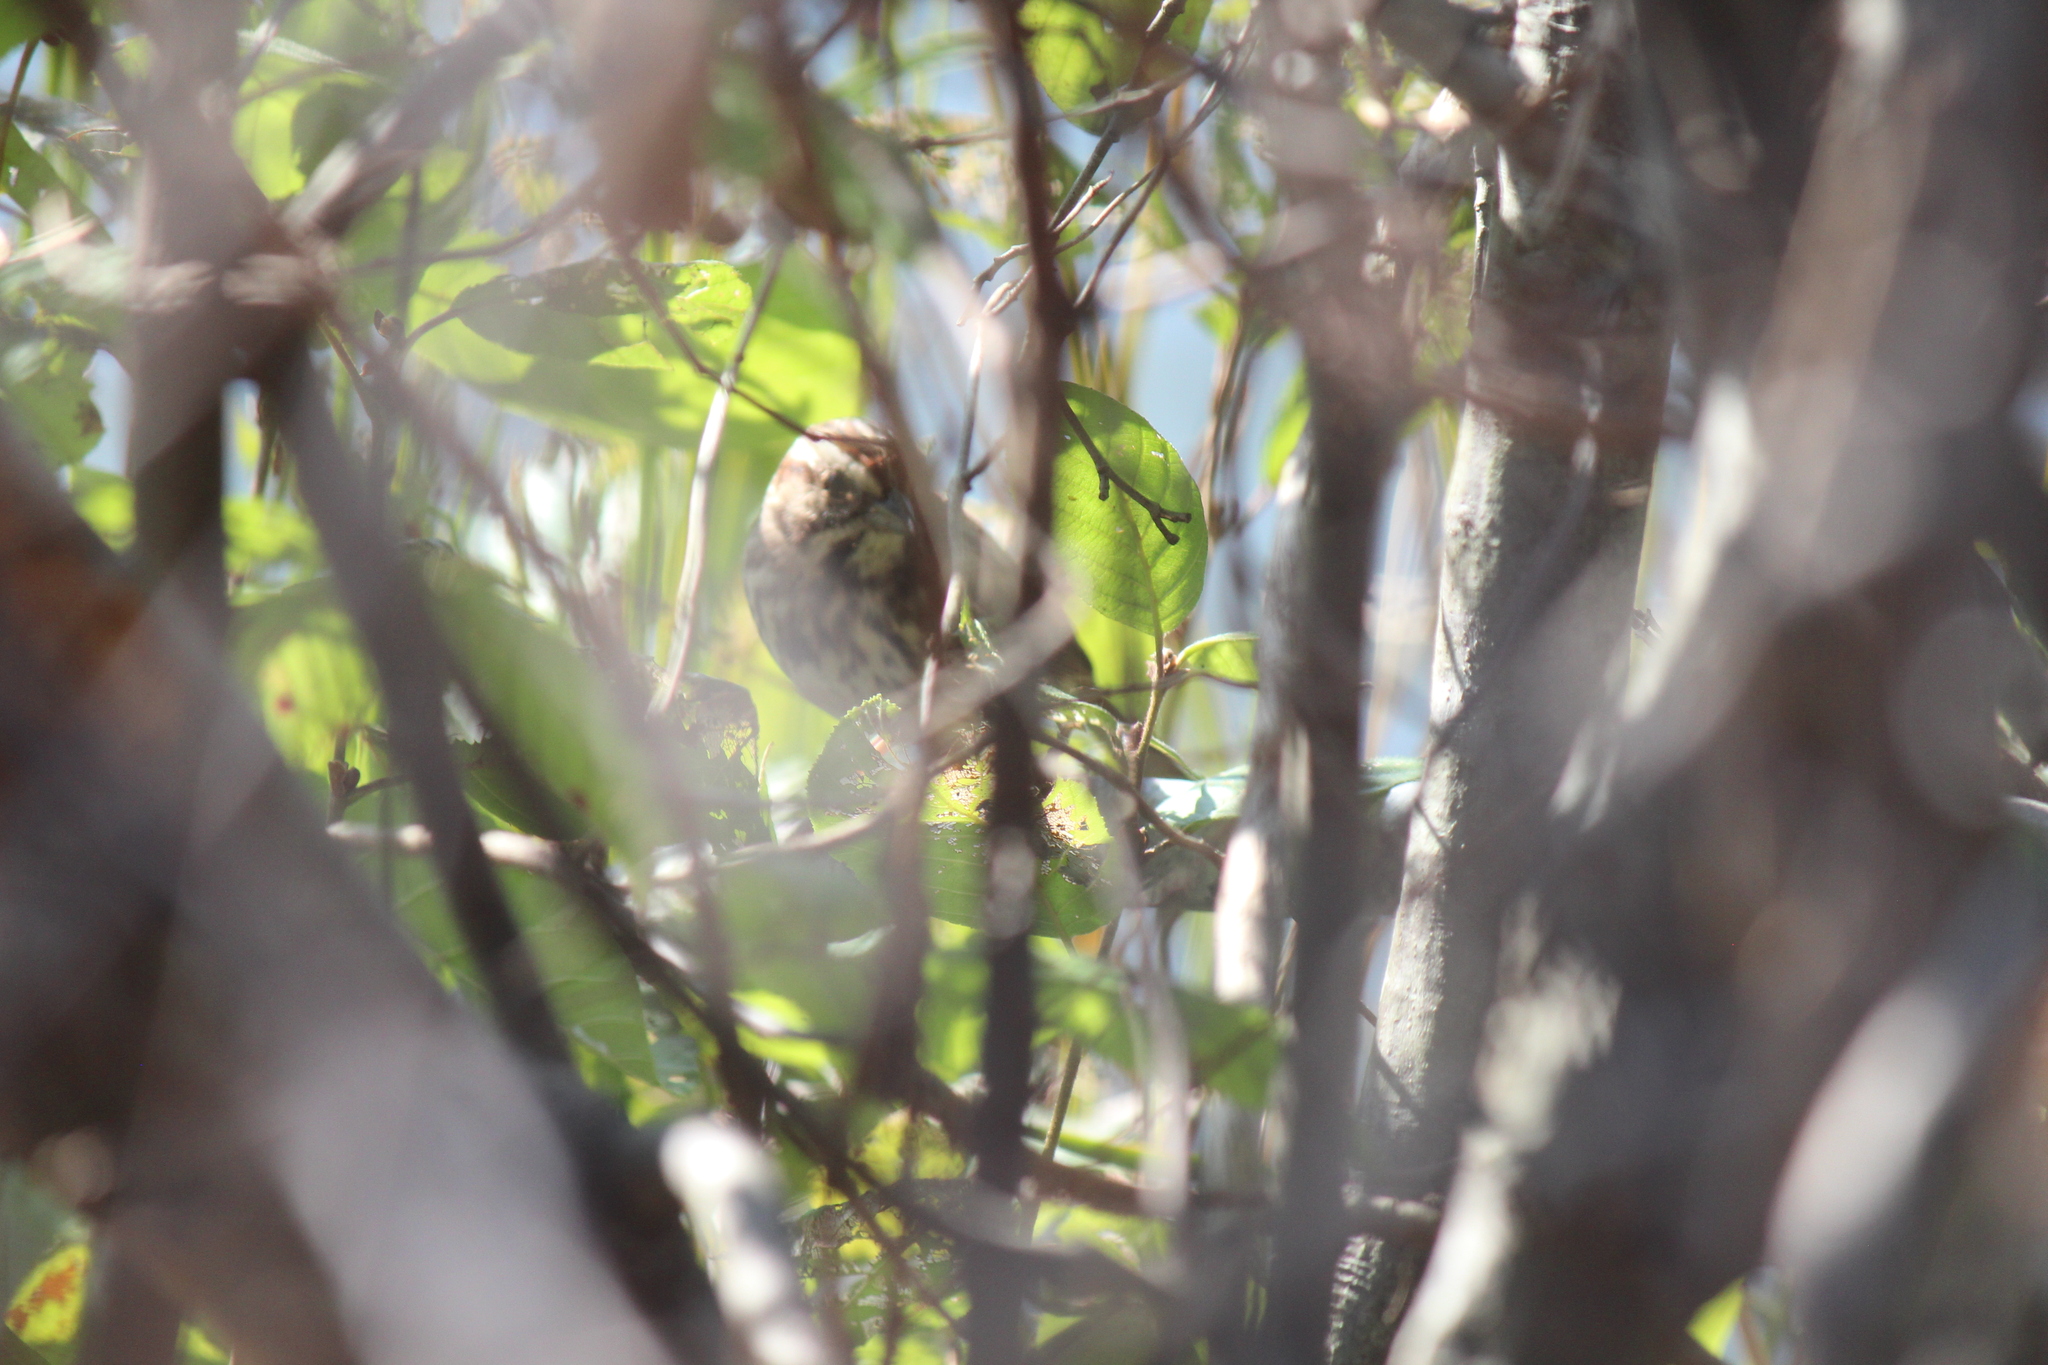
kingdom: Animalia
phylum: Chordata
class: Aves
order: Passeriformes
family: Passerellidae
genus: Melospiza
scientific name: Melospiza melodia
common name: Song sparrow
